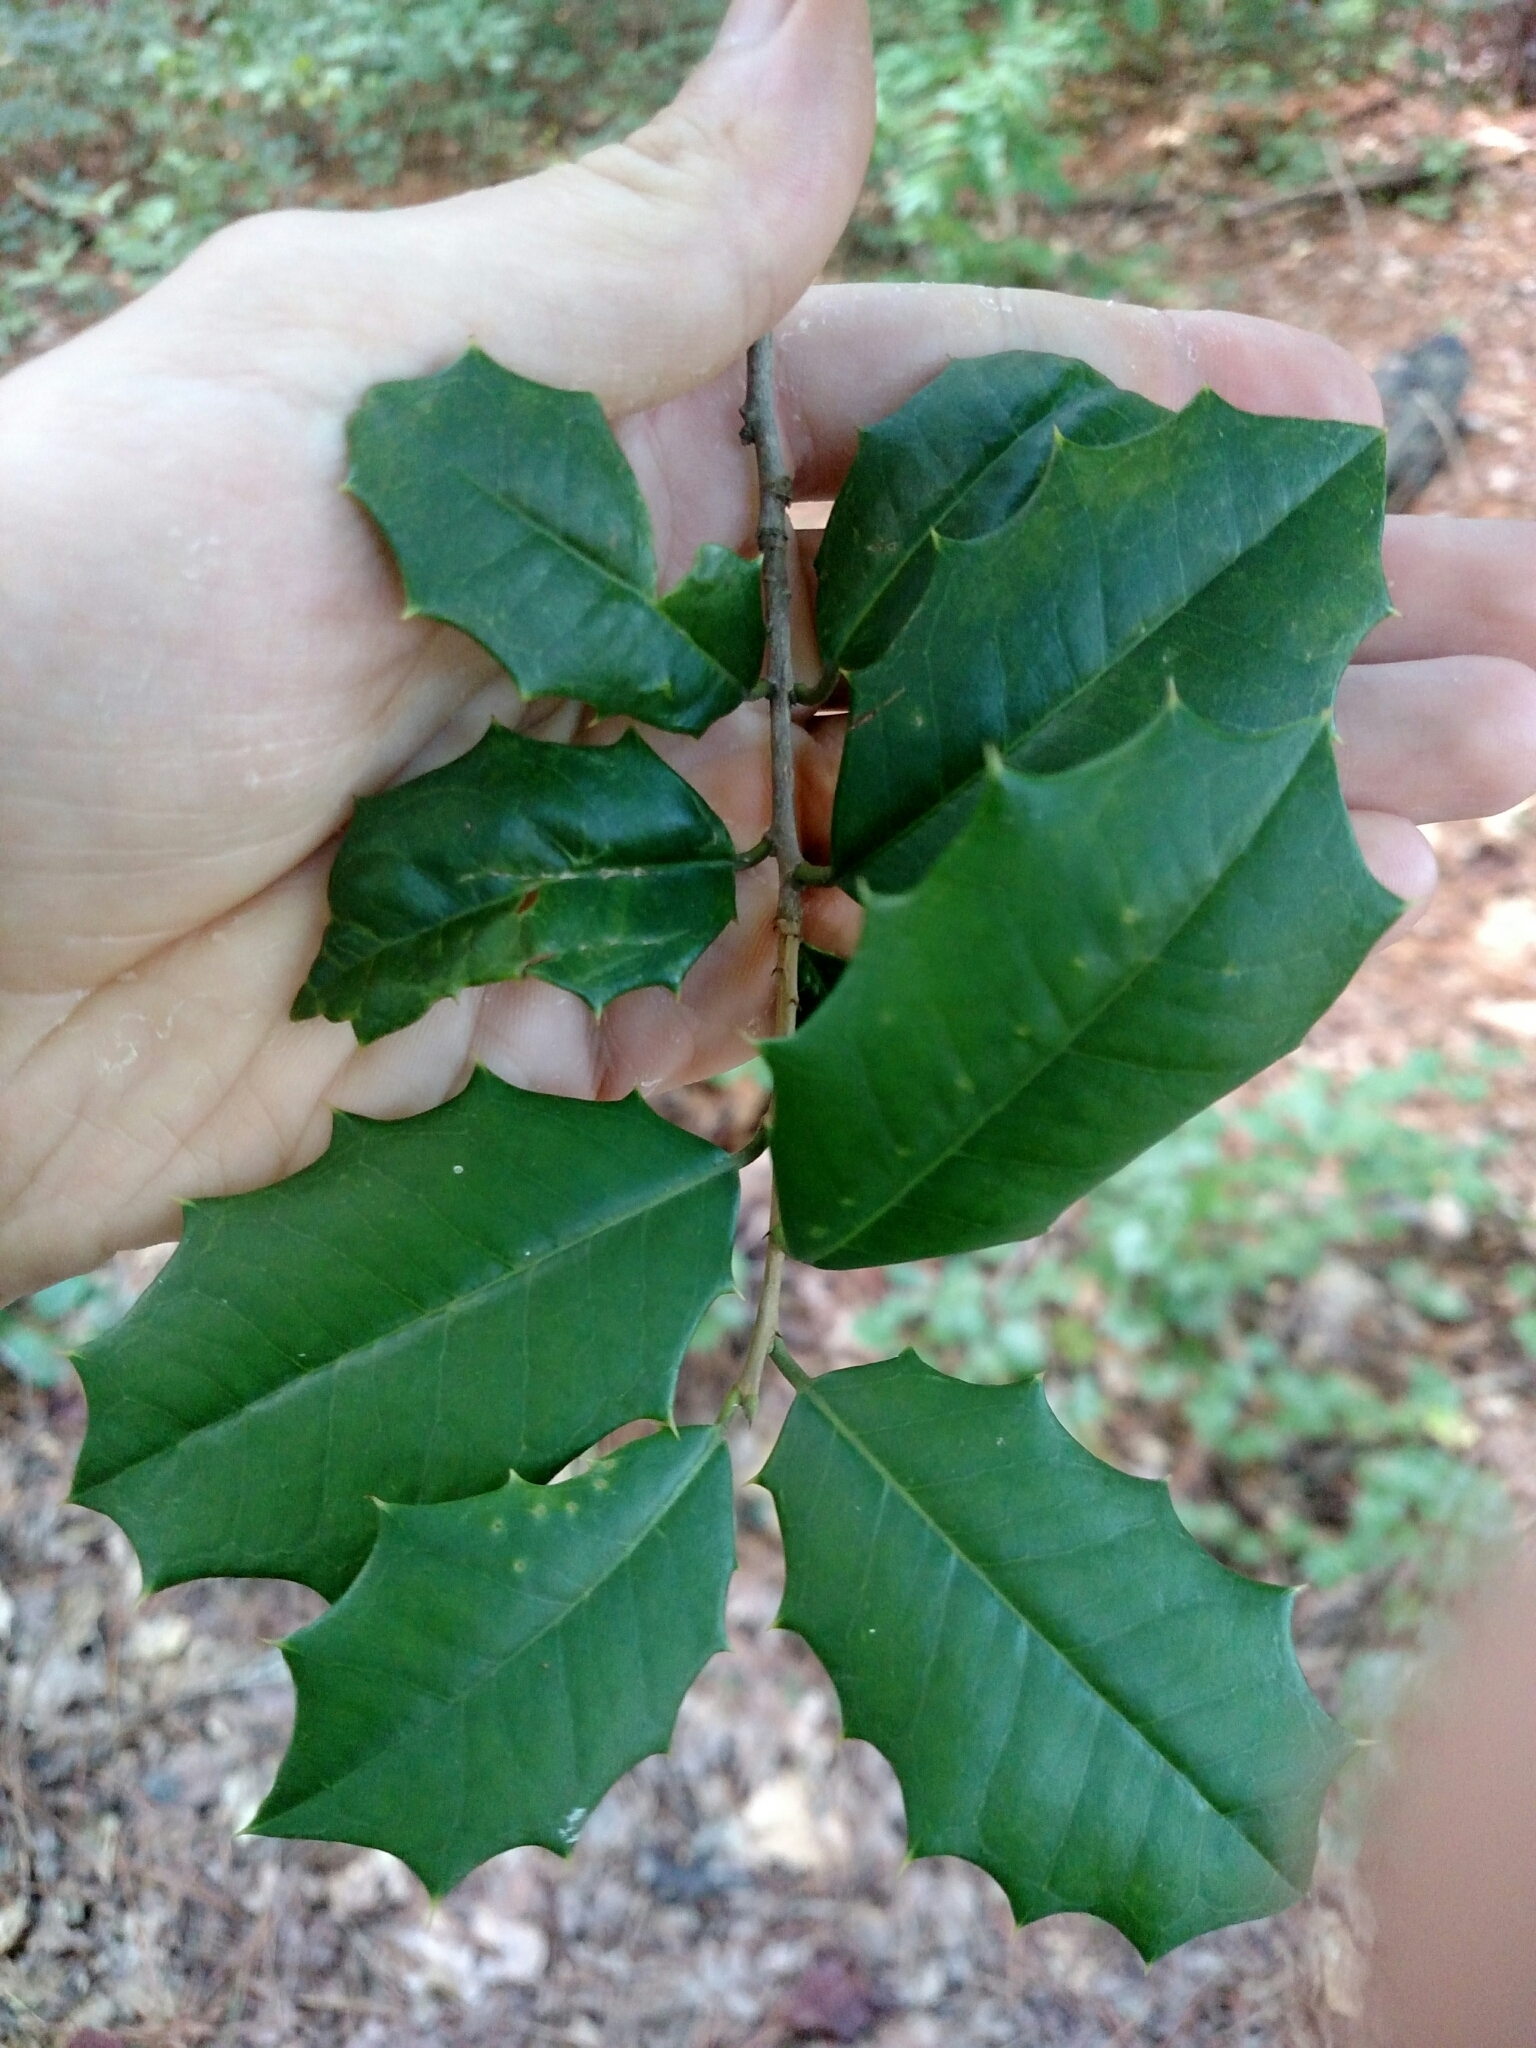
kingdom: Plantae
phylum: Tracheophyta
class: Magnoliopsida
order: Aquifoliales
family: Aquifoliaceae
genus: Ilex
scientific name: Ilex opaca
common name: American holly
